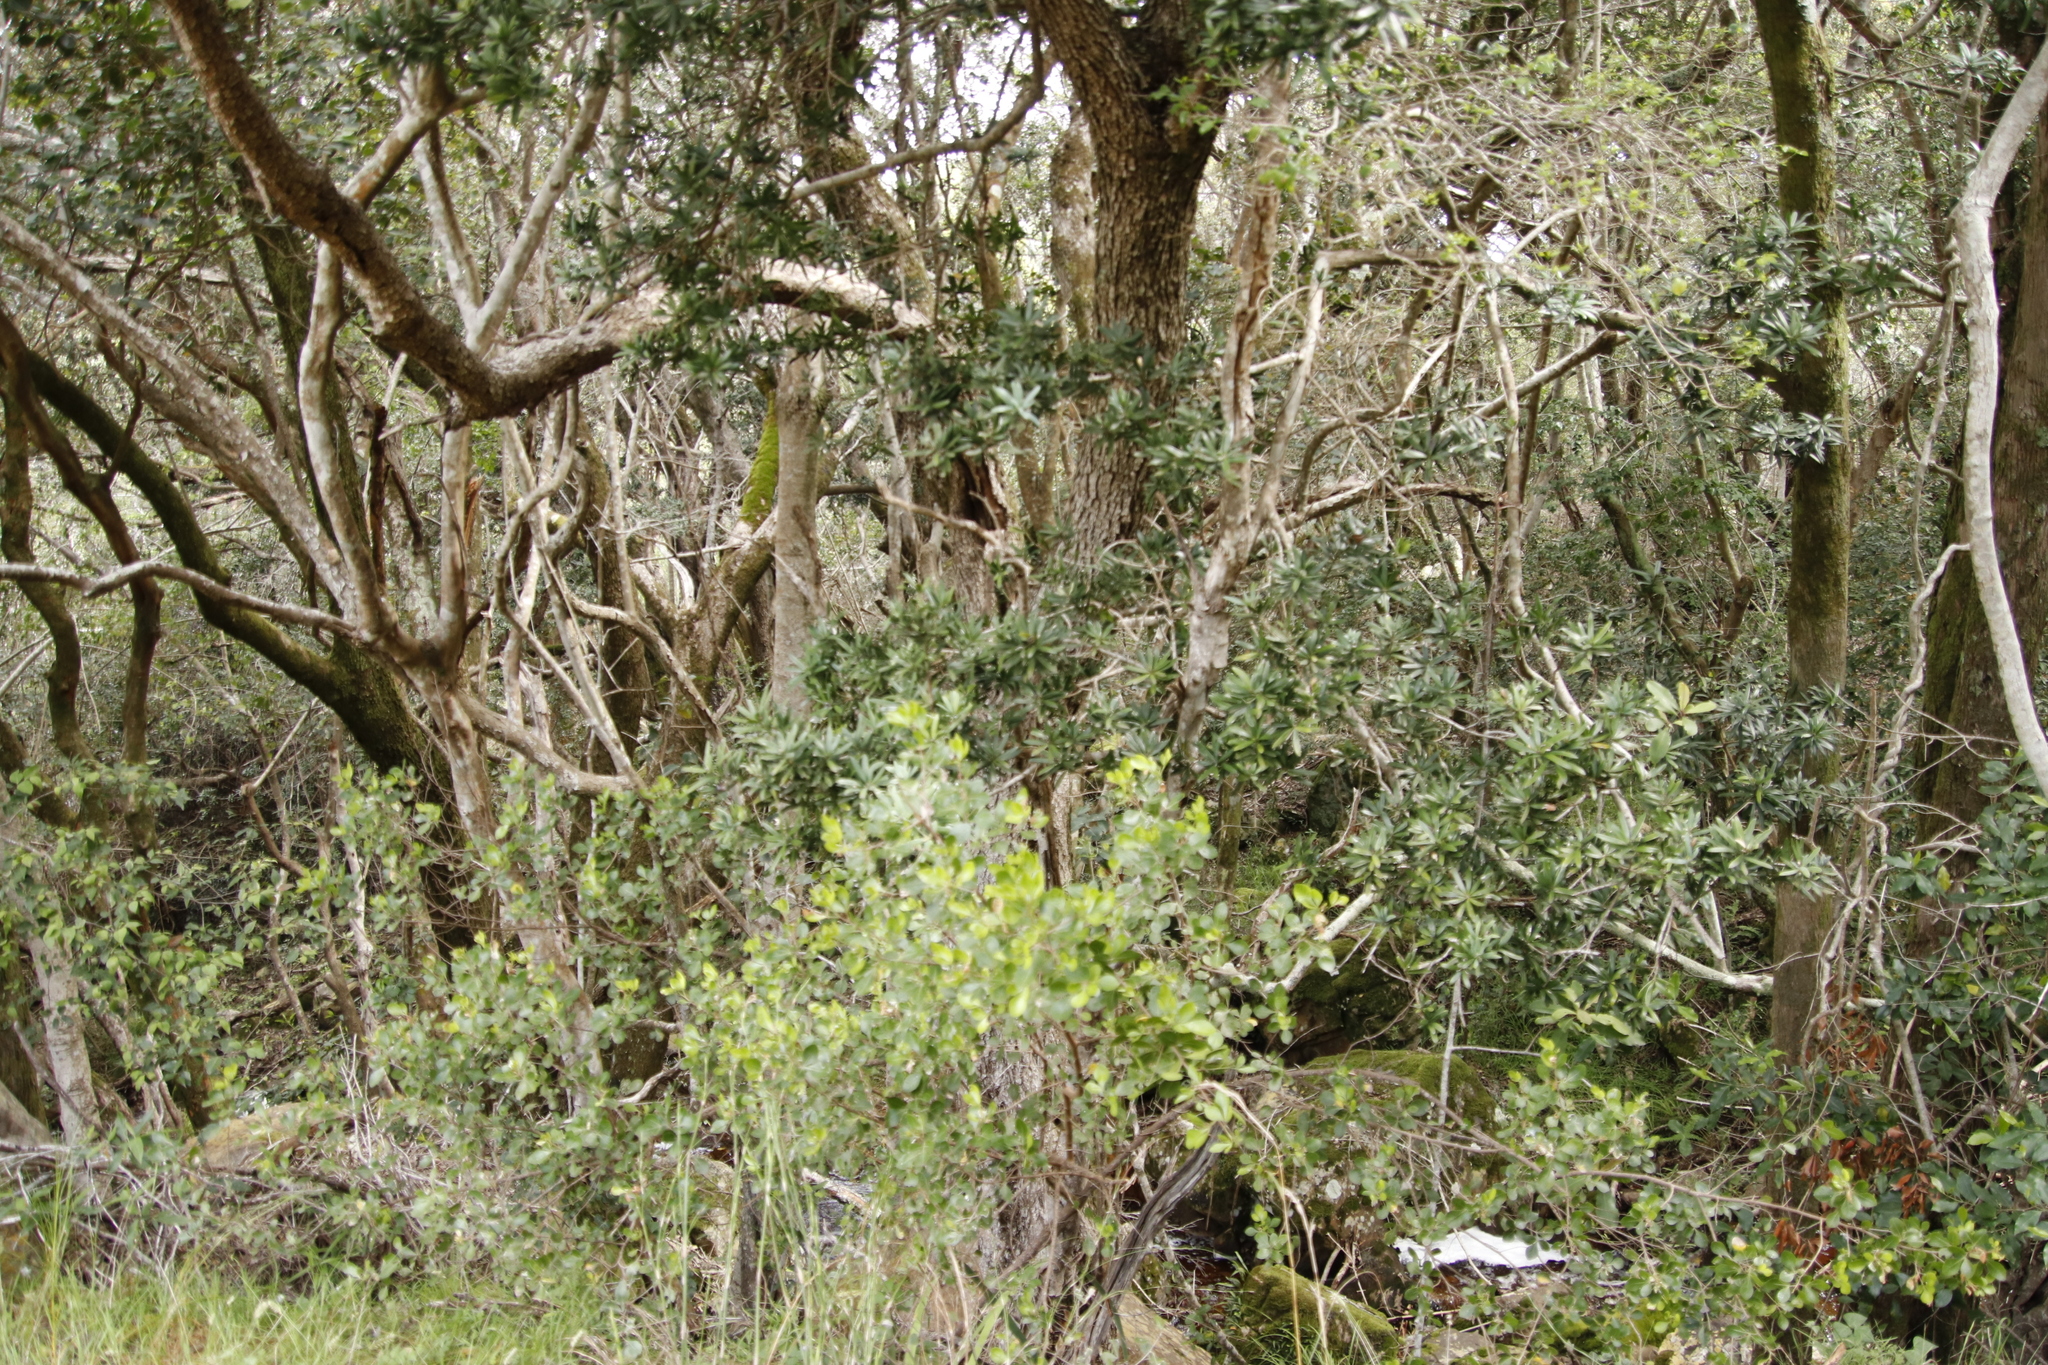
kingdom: Plantae
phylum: Tracheophyta
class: Pinopsida
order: Pinales
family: Podocarpaceae
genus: Podocarpus
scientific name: Podocarpus latifolius
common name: True yellowwood
